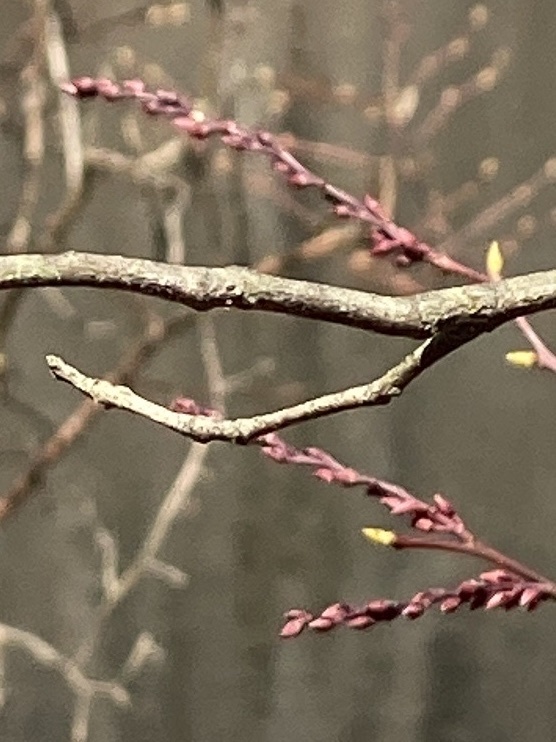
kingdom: Plantae
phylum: Tracheophyta
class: Magnoliopsida
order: Ericales
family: Ericaceae
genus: Eubotrys
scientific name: Eubotrys racemosa
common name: Fetterbush
